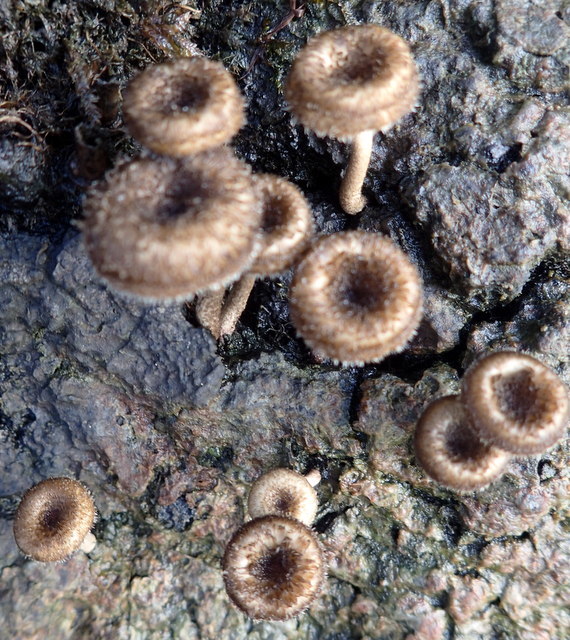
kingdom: Fungi
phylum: Basidiomycota
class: Agaricomycetes
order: Polyporales
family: Polyporaceae
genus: Lentinus
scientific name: Lentinus crinitus
